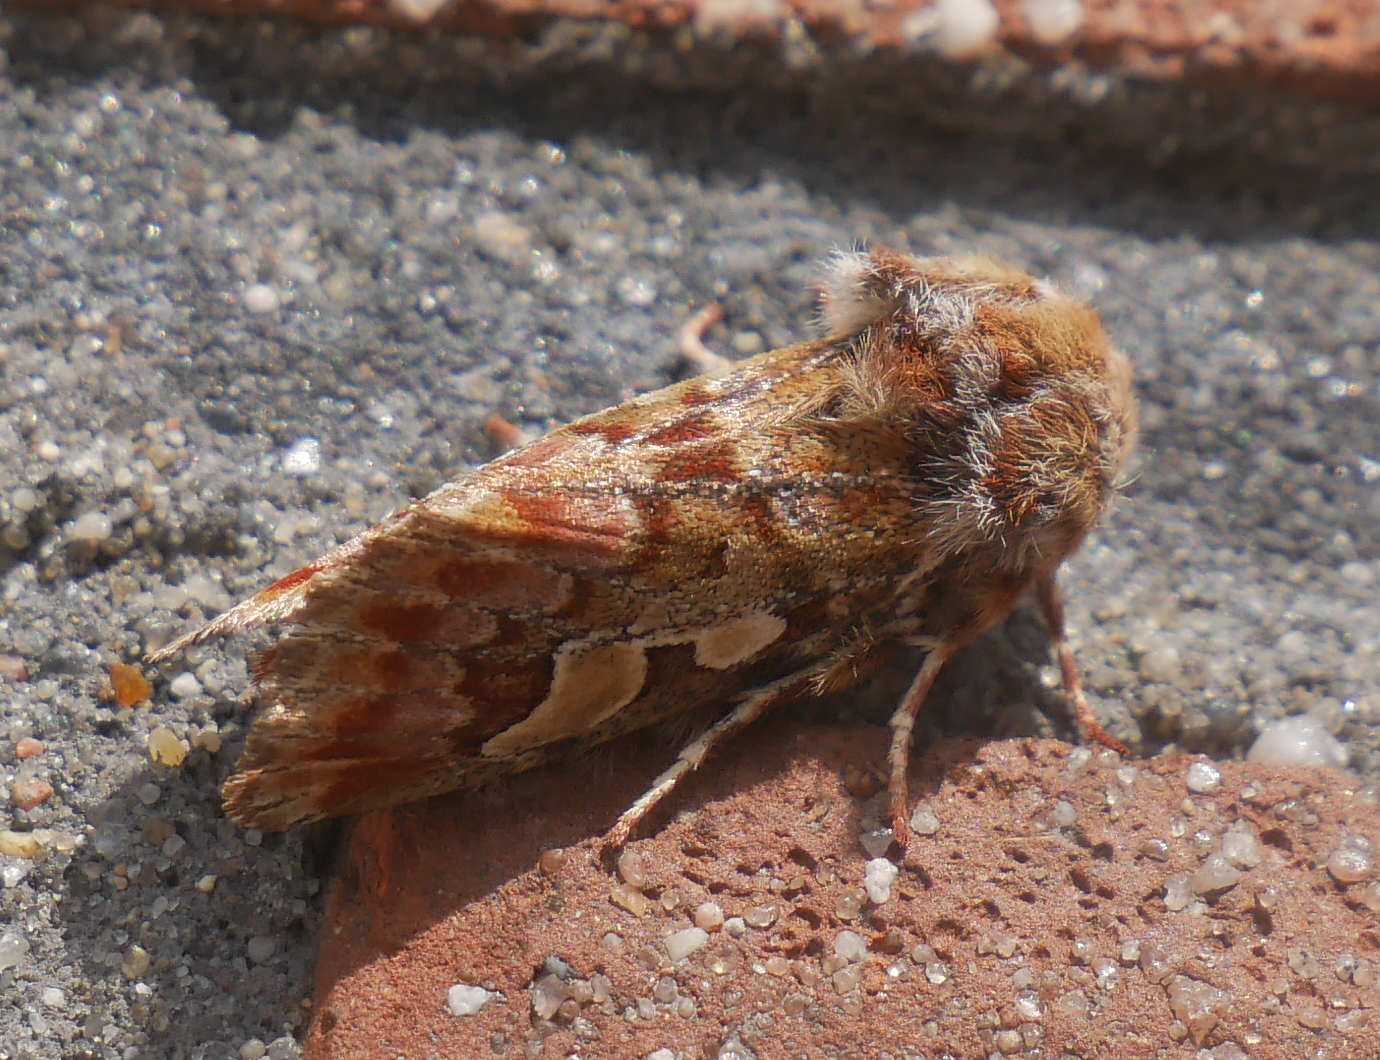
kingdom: Animalia
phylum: Arthropoda
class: Insecta
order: Lepidoptera
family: Noctuidae
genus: Panolis
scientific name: Panolis flammea
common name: Pine beauty
